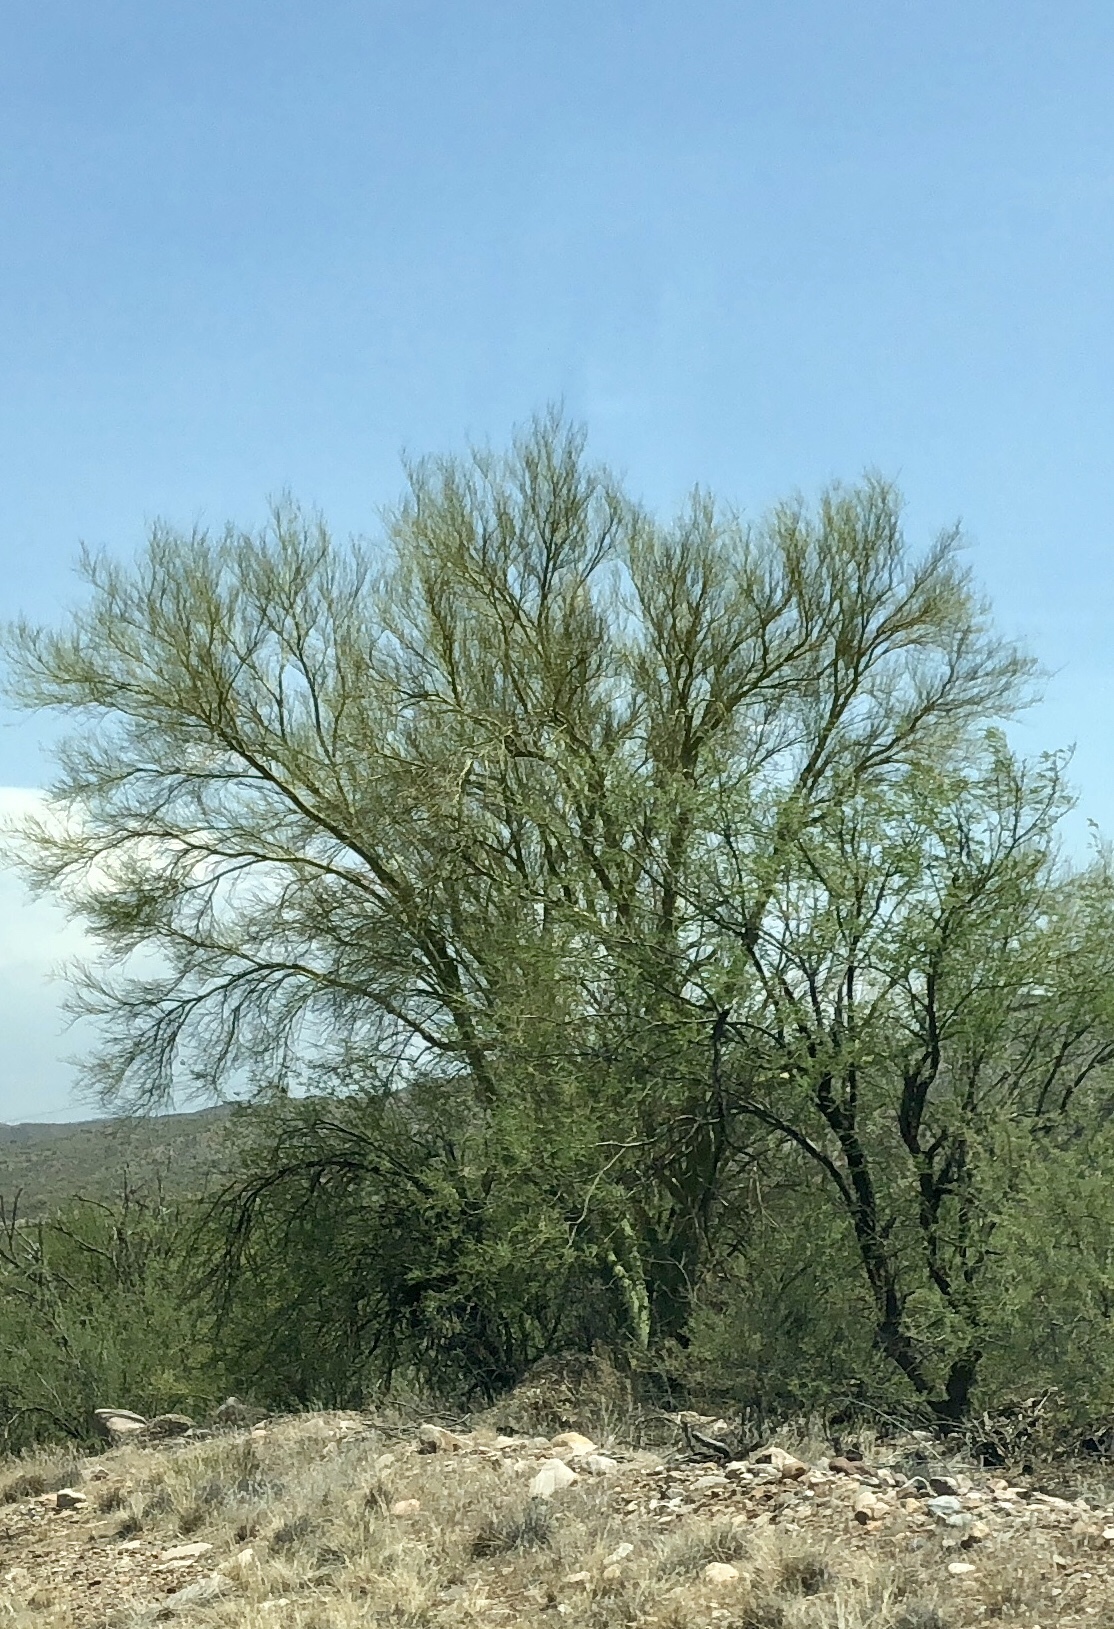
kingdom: Plantae
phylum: Tracheophyta
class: Magnoliopsida
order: Fabales
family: Fabaceae
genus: Parkinsonia
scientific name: Parkinsonia microphylla
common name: Yellow paloverde
